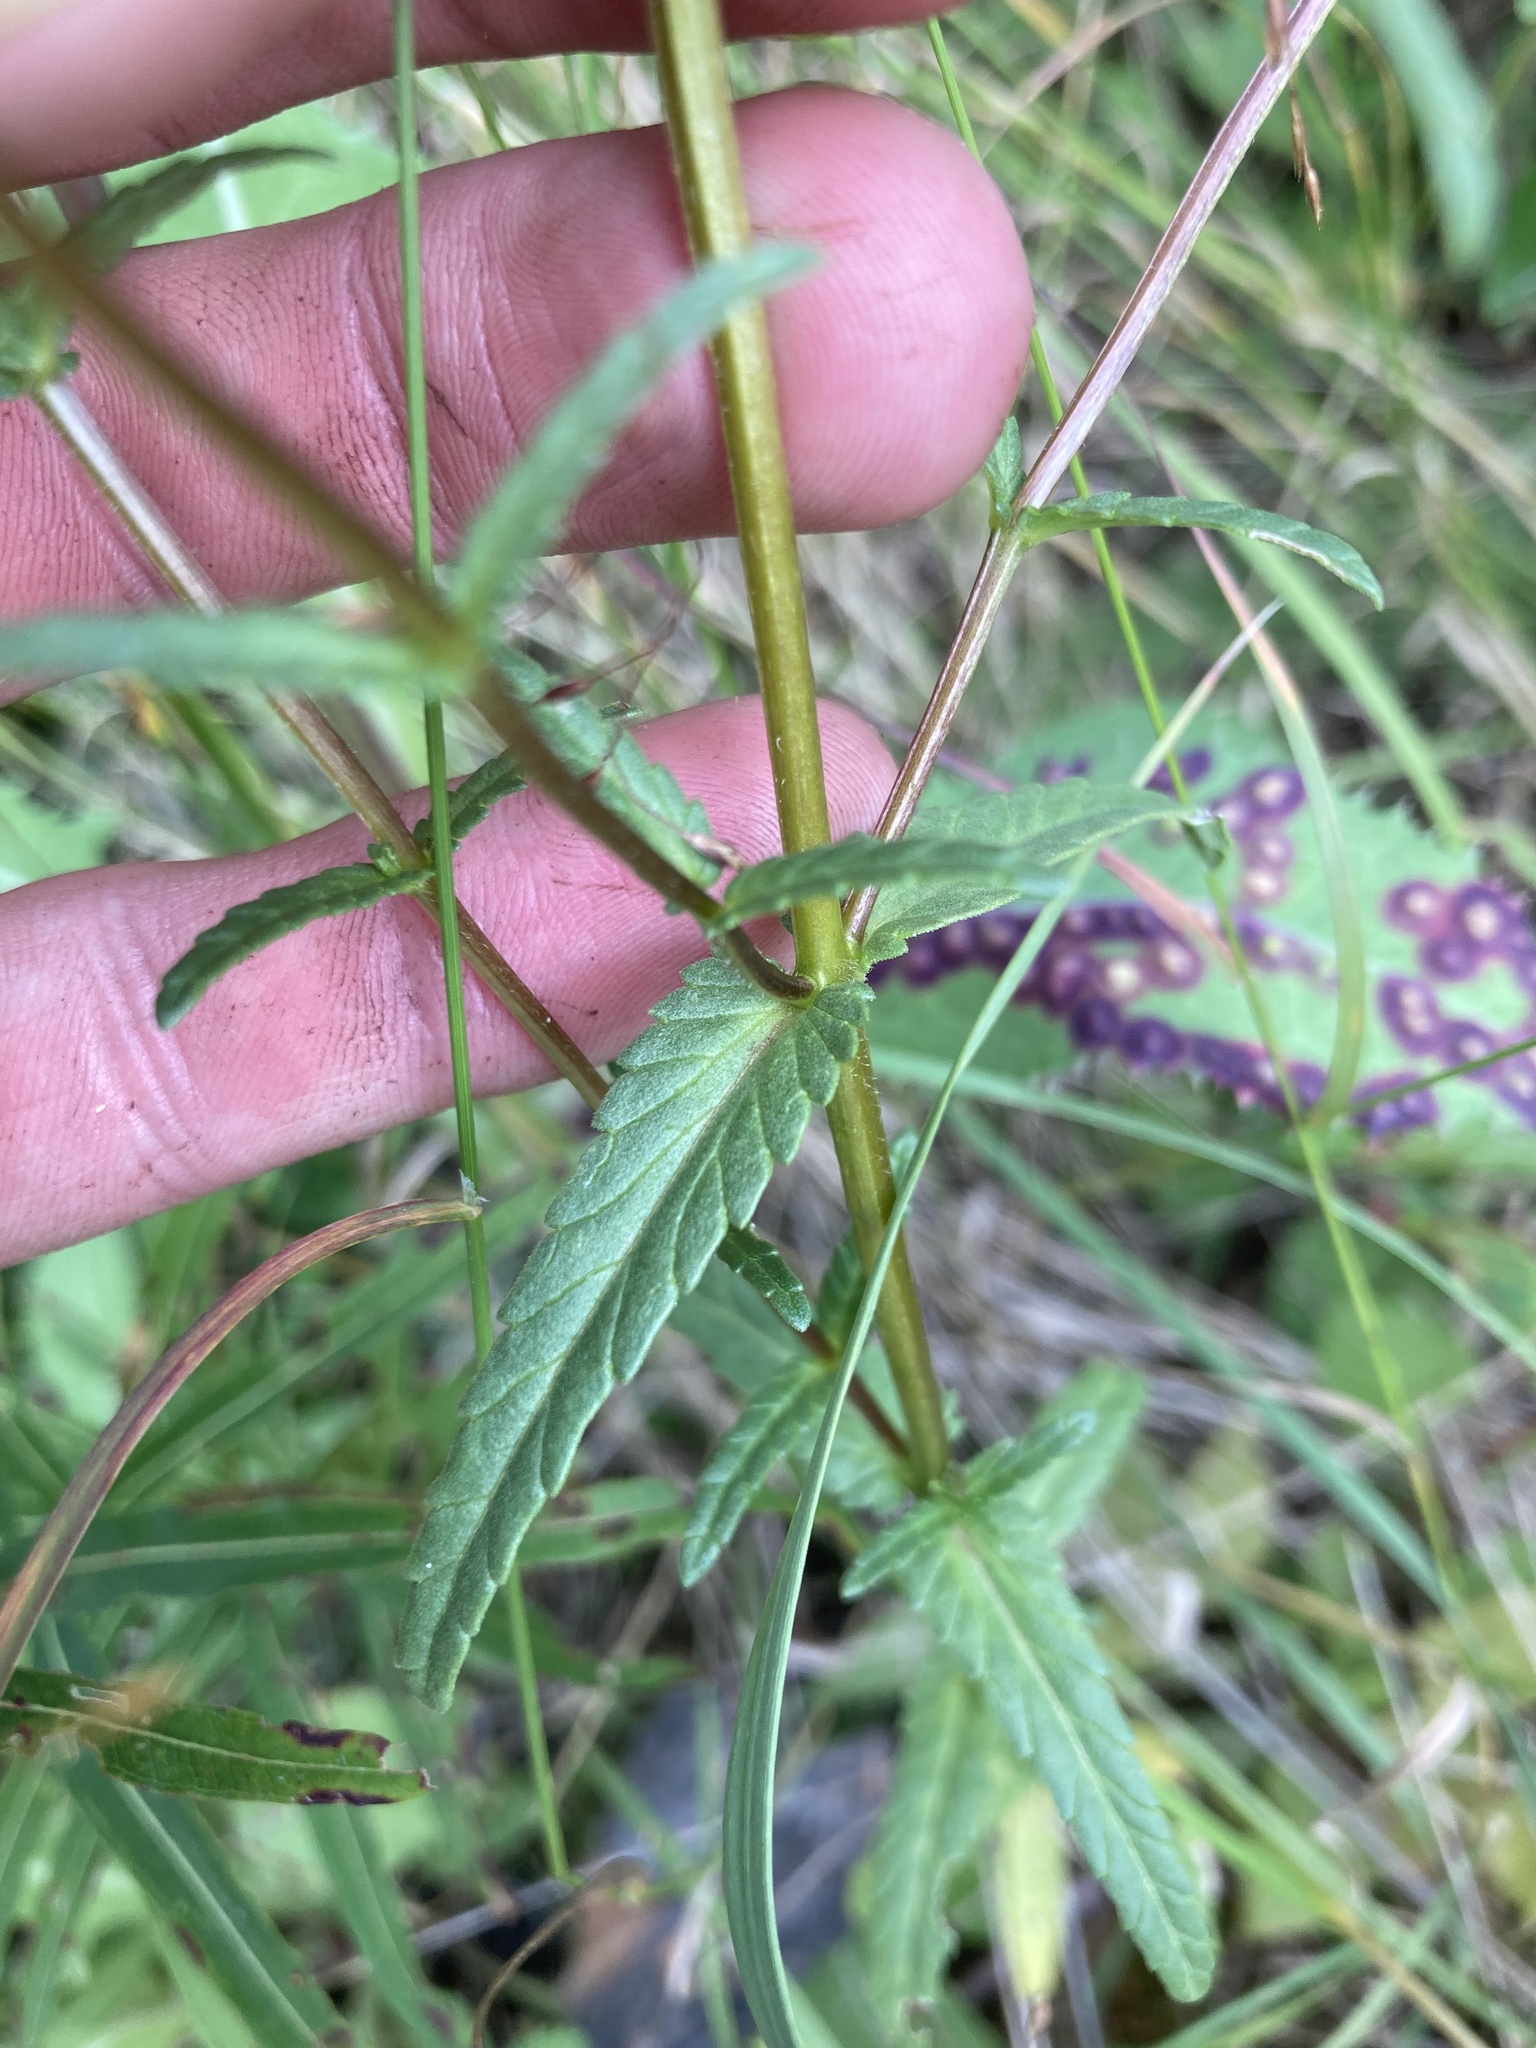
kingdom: Plantae
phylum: Tracheophyta
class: Magnoliopsida
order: Lamiales
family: Orobanchaceae
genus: Rhinanthus
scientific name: Rhinanthus groenlandicus
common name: Little yellow rattle
